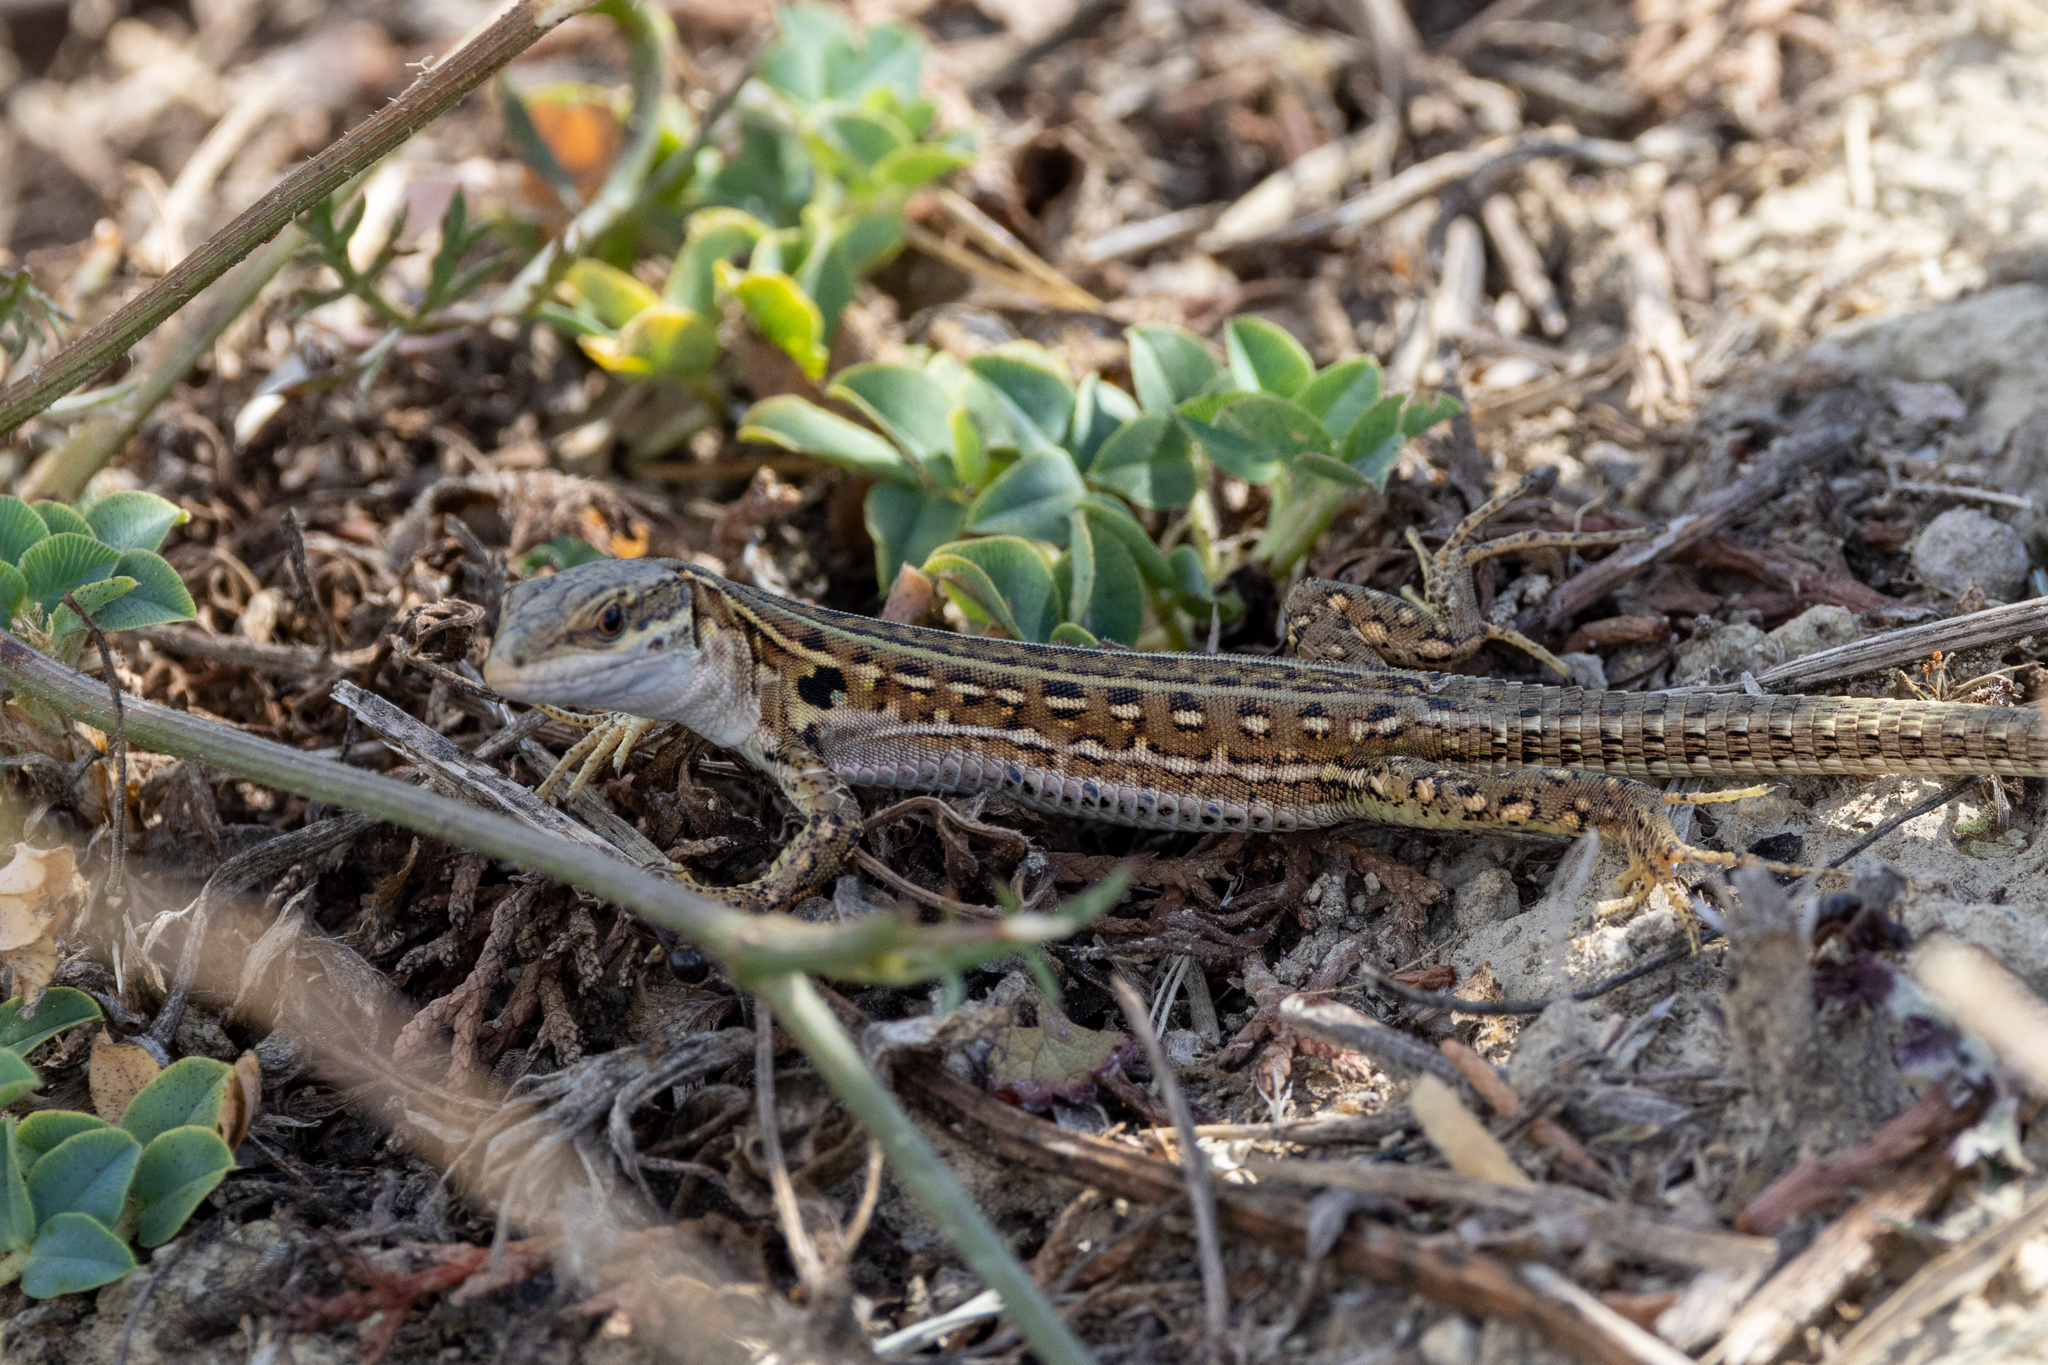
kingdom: Animalia
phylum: Chordata
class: Squamata
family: Lacertidae
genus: Podarcis
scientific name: Podarcis siculus
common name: Italian wall lizard
